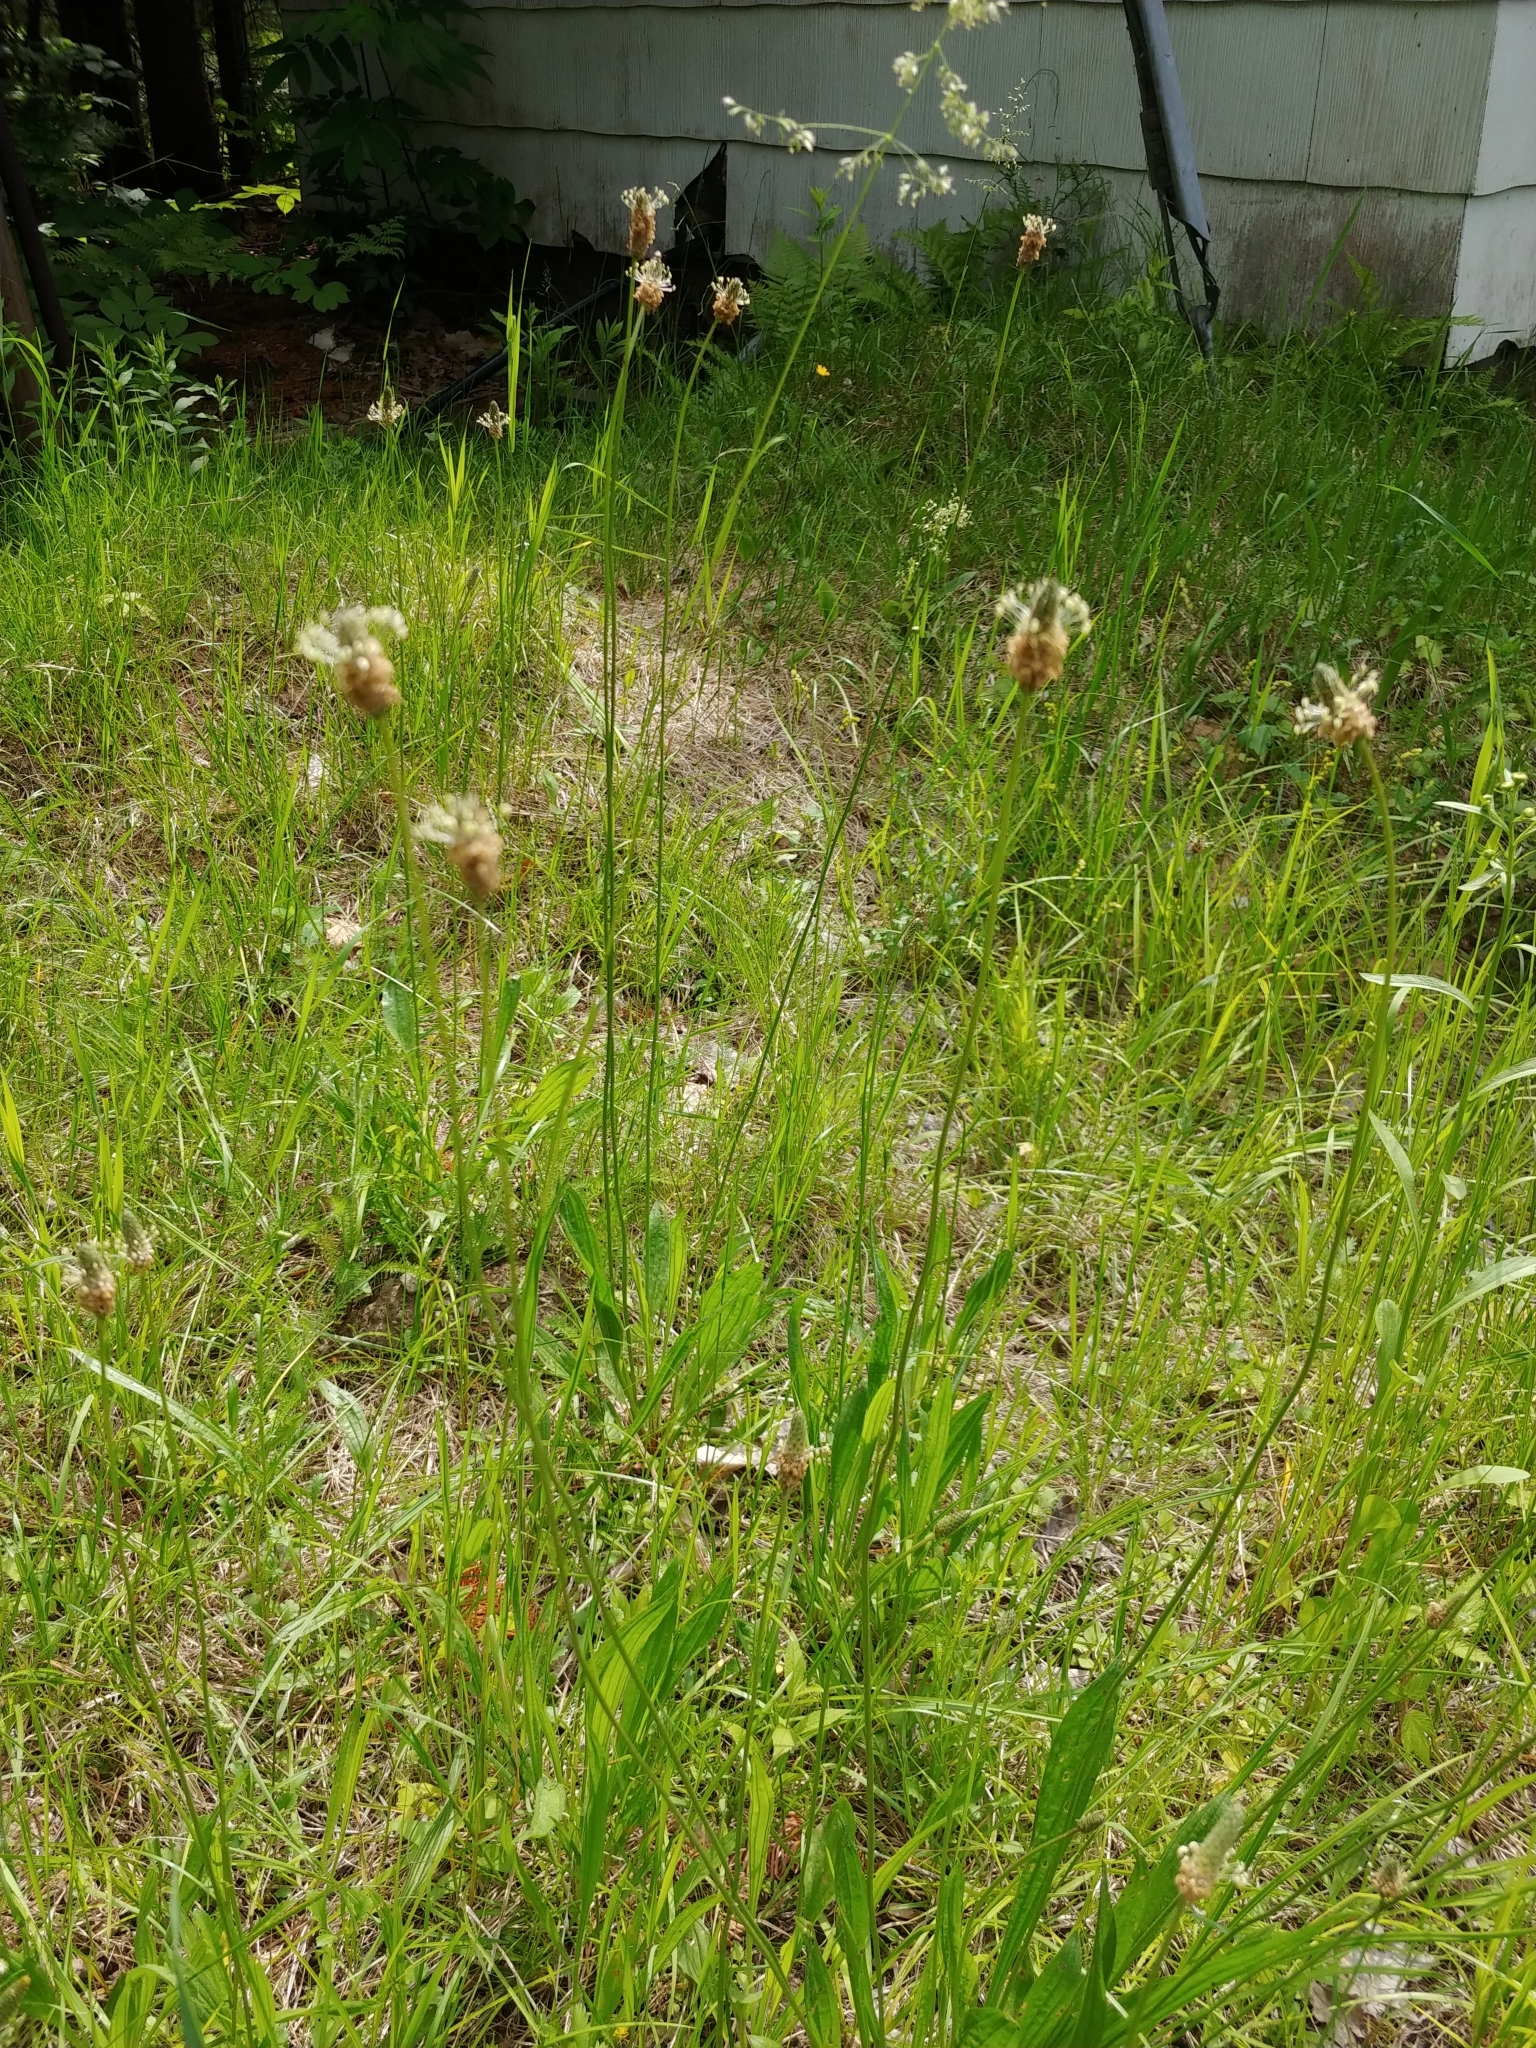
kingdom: Plantae
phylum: Tracheophyta
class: Magnoliopsida
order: Lamiales
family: Plantaginaceae
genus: Plantago
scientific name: Plantago lanceolata
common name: Ribwort plantain
